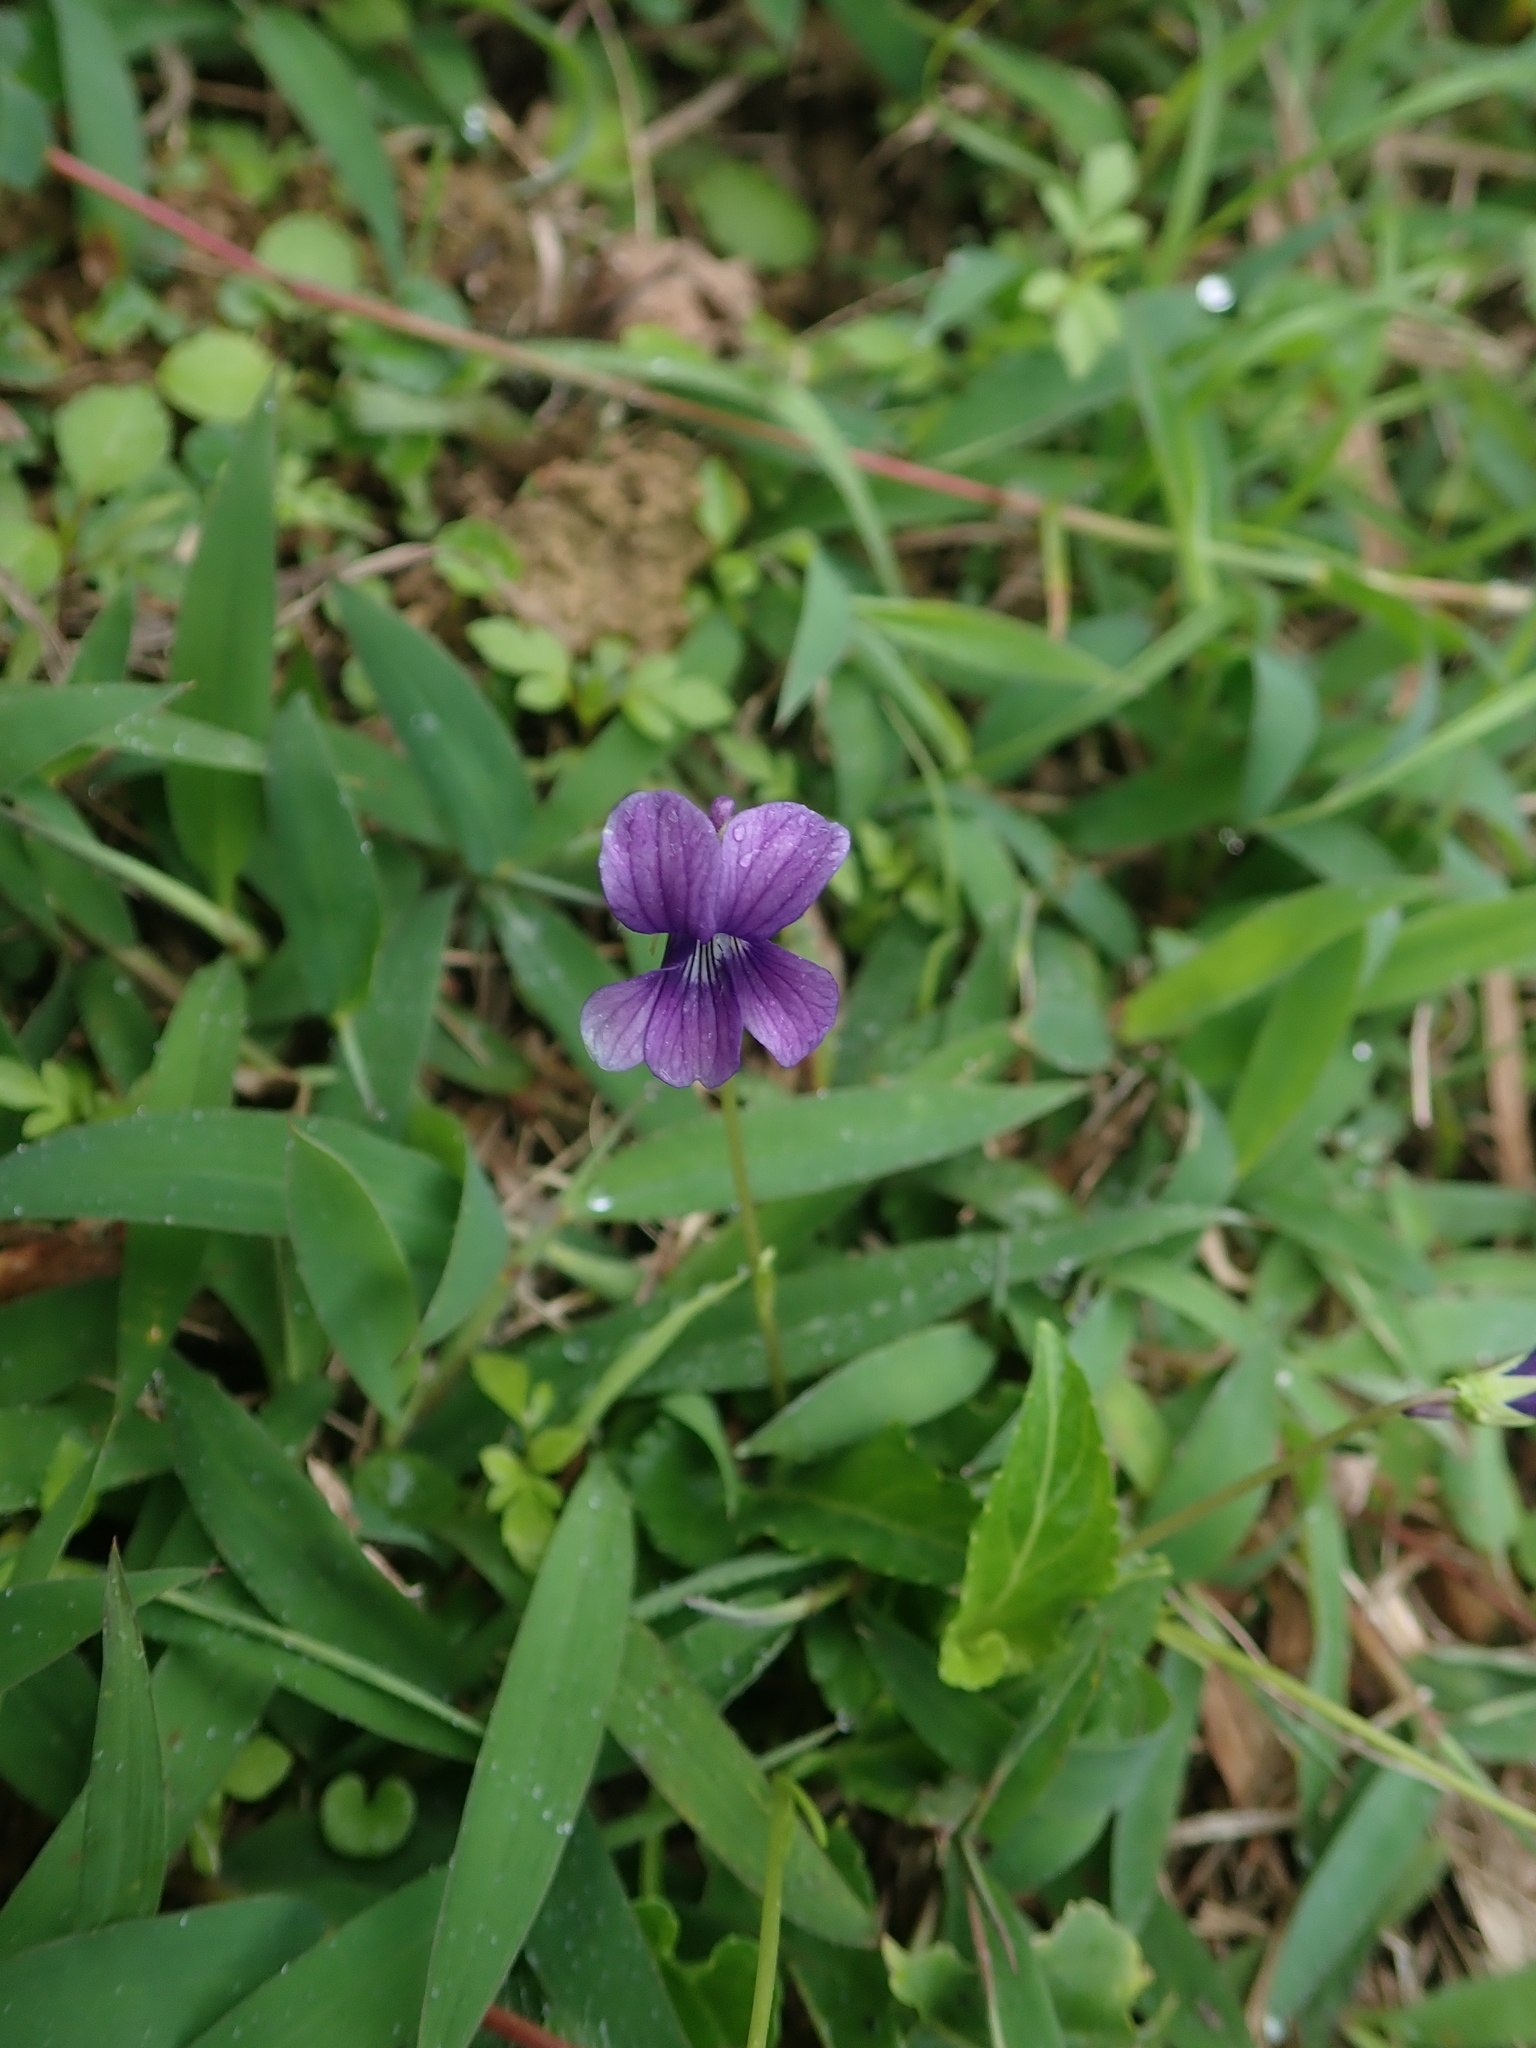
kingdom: Plantae
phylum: Tracheophyta
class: Magnoliopsida
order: Malpighiales
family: Violaceae
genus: Viola
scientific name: Viola
